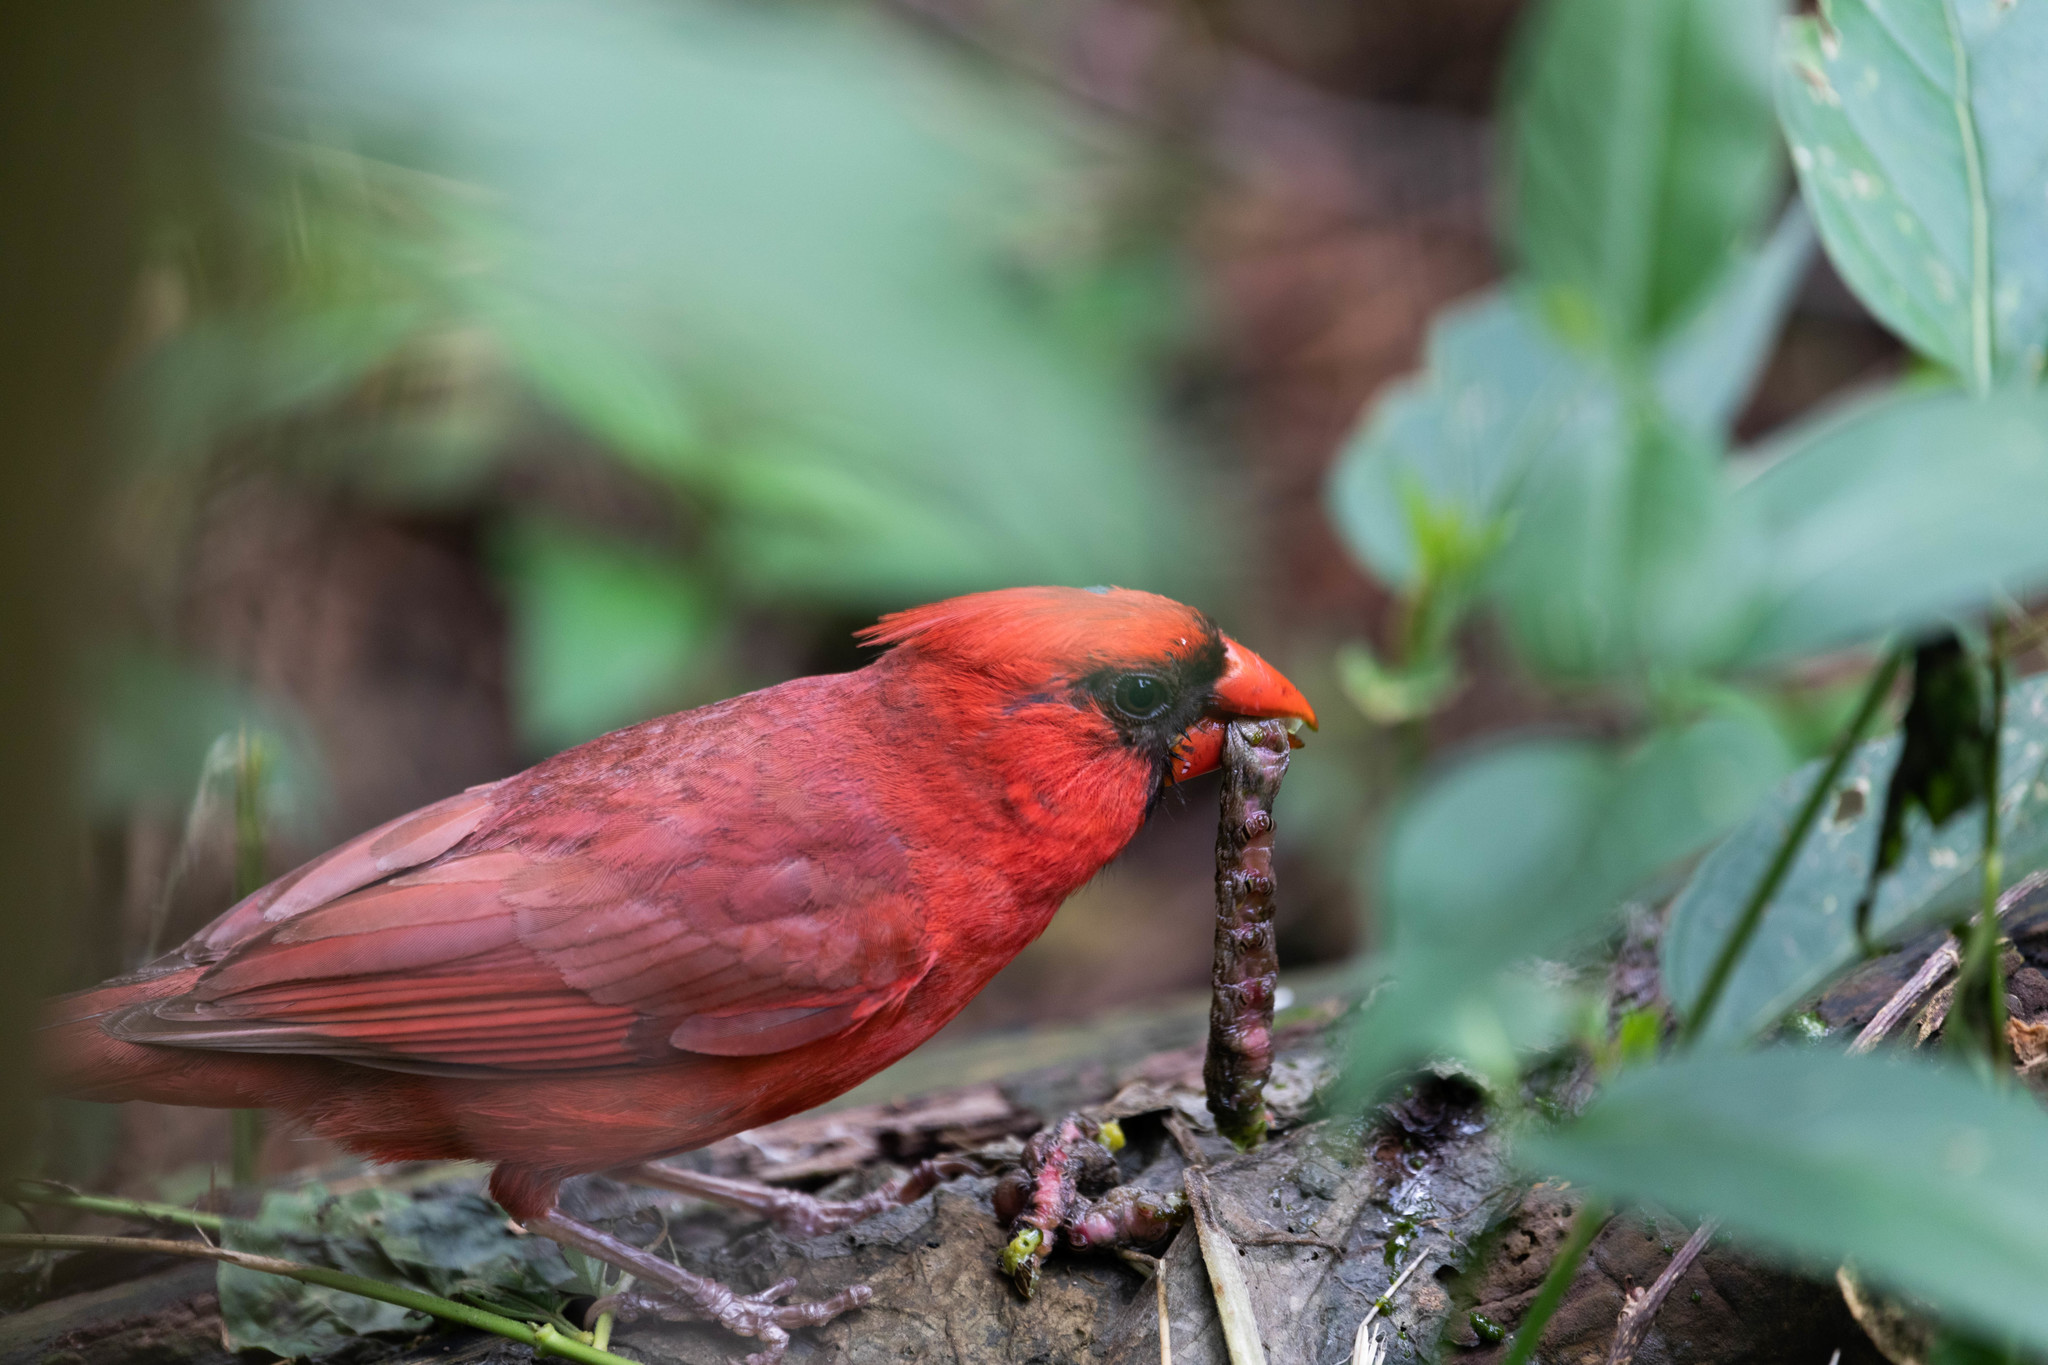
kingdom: Animalia
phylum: Chordata
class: Aves
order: Passeriformes
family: Cardinalidae
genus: Cardinalis
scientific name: Cardinalis cardinalis
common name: Northern cardinal
